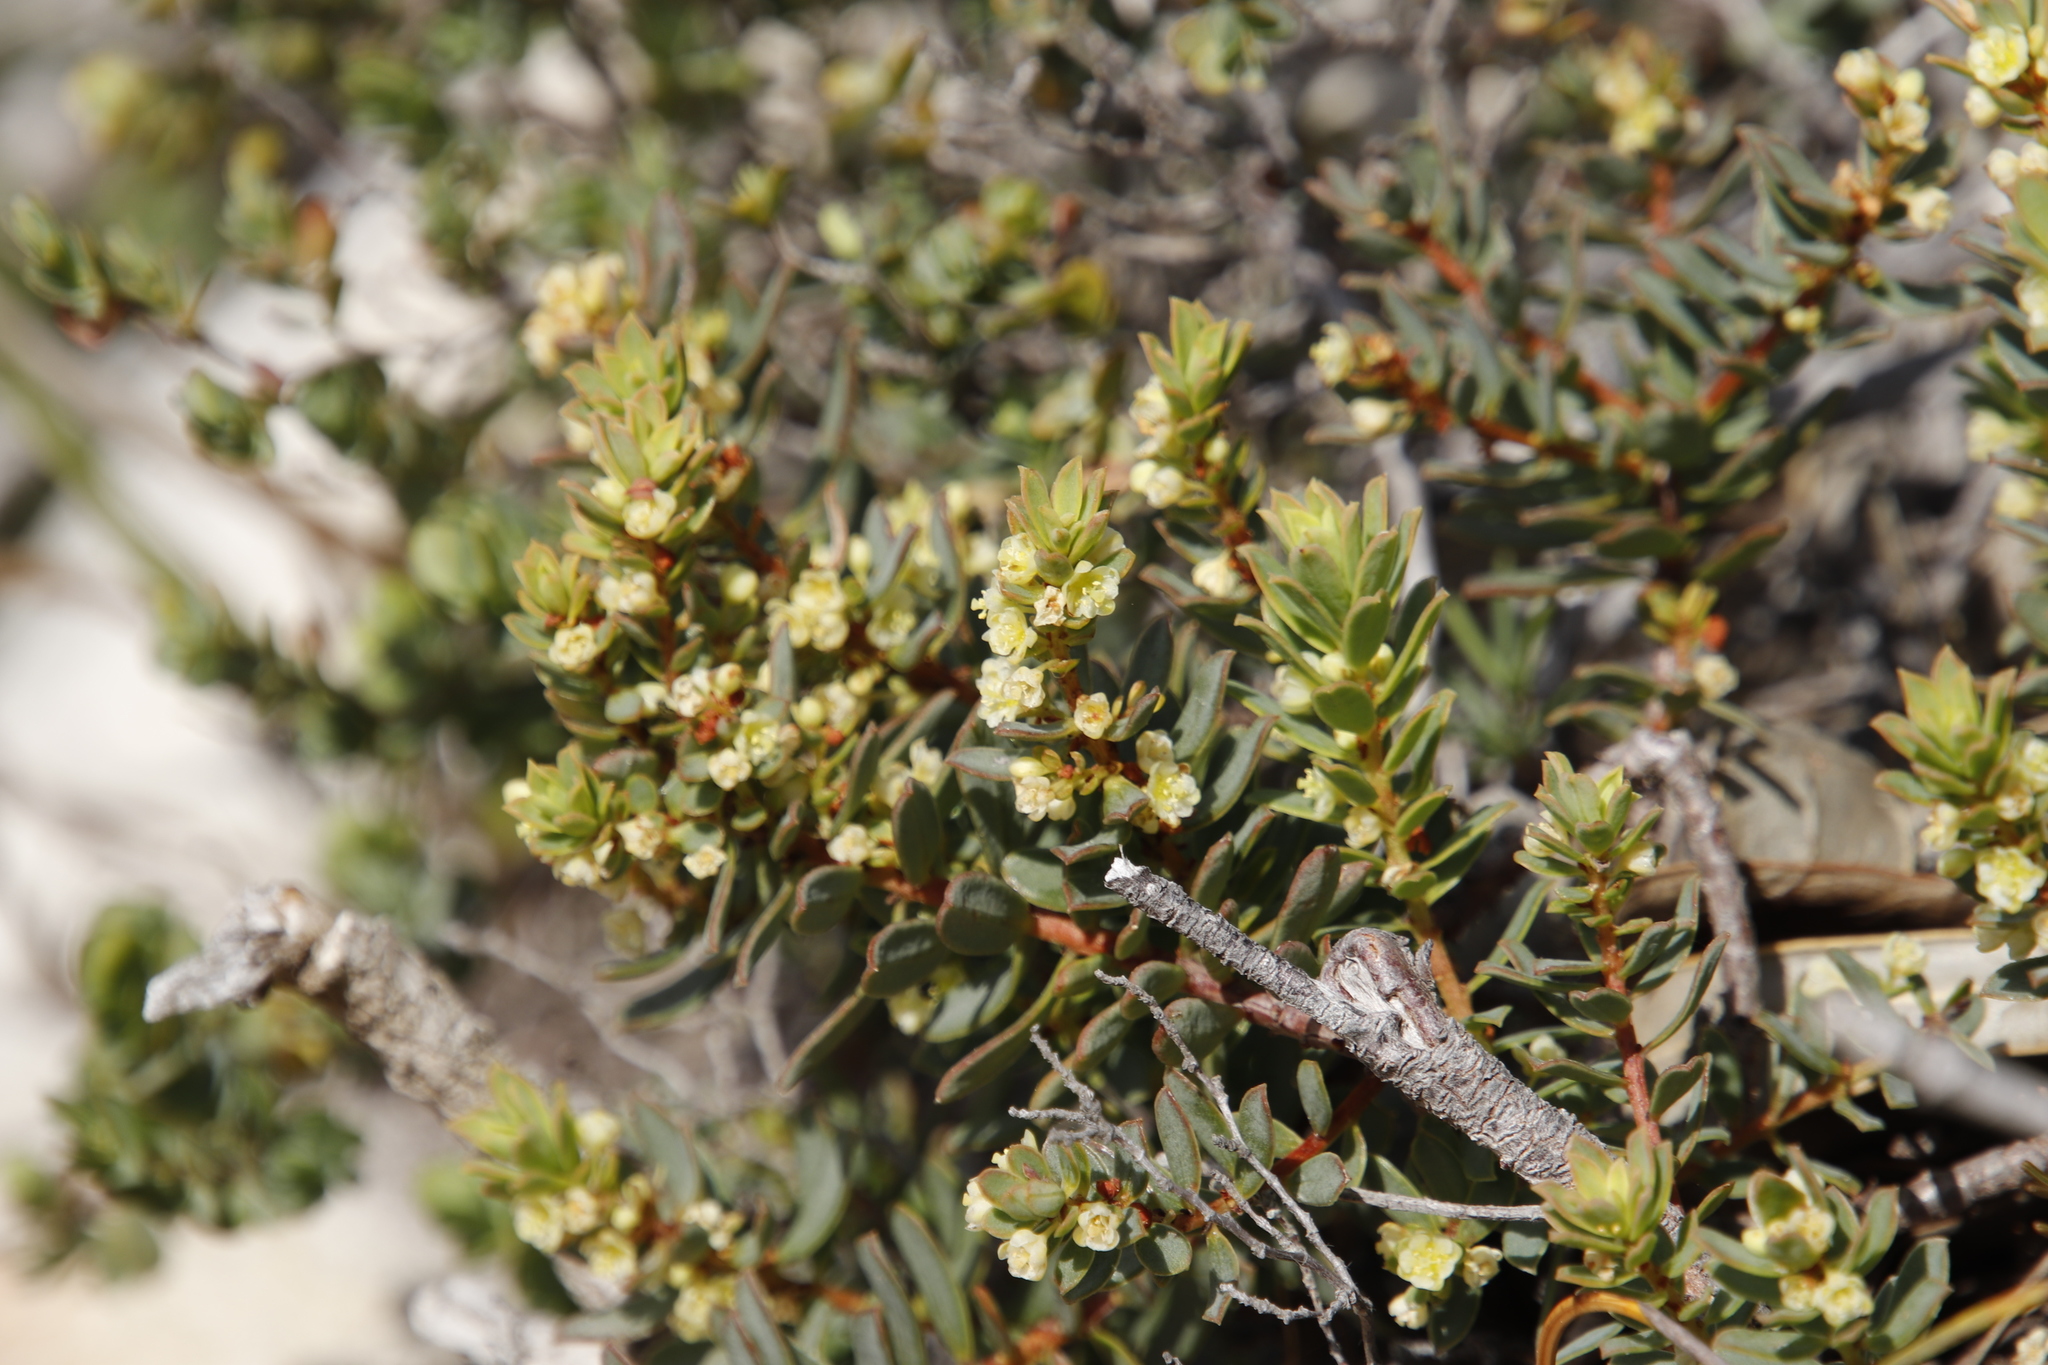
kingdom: Plantae
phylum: Tracheophyta
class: Magnoliopsida
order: Malpighiales
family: Peraceae
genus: Clutia
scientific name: Clutia alaternoides
